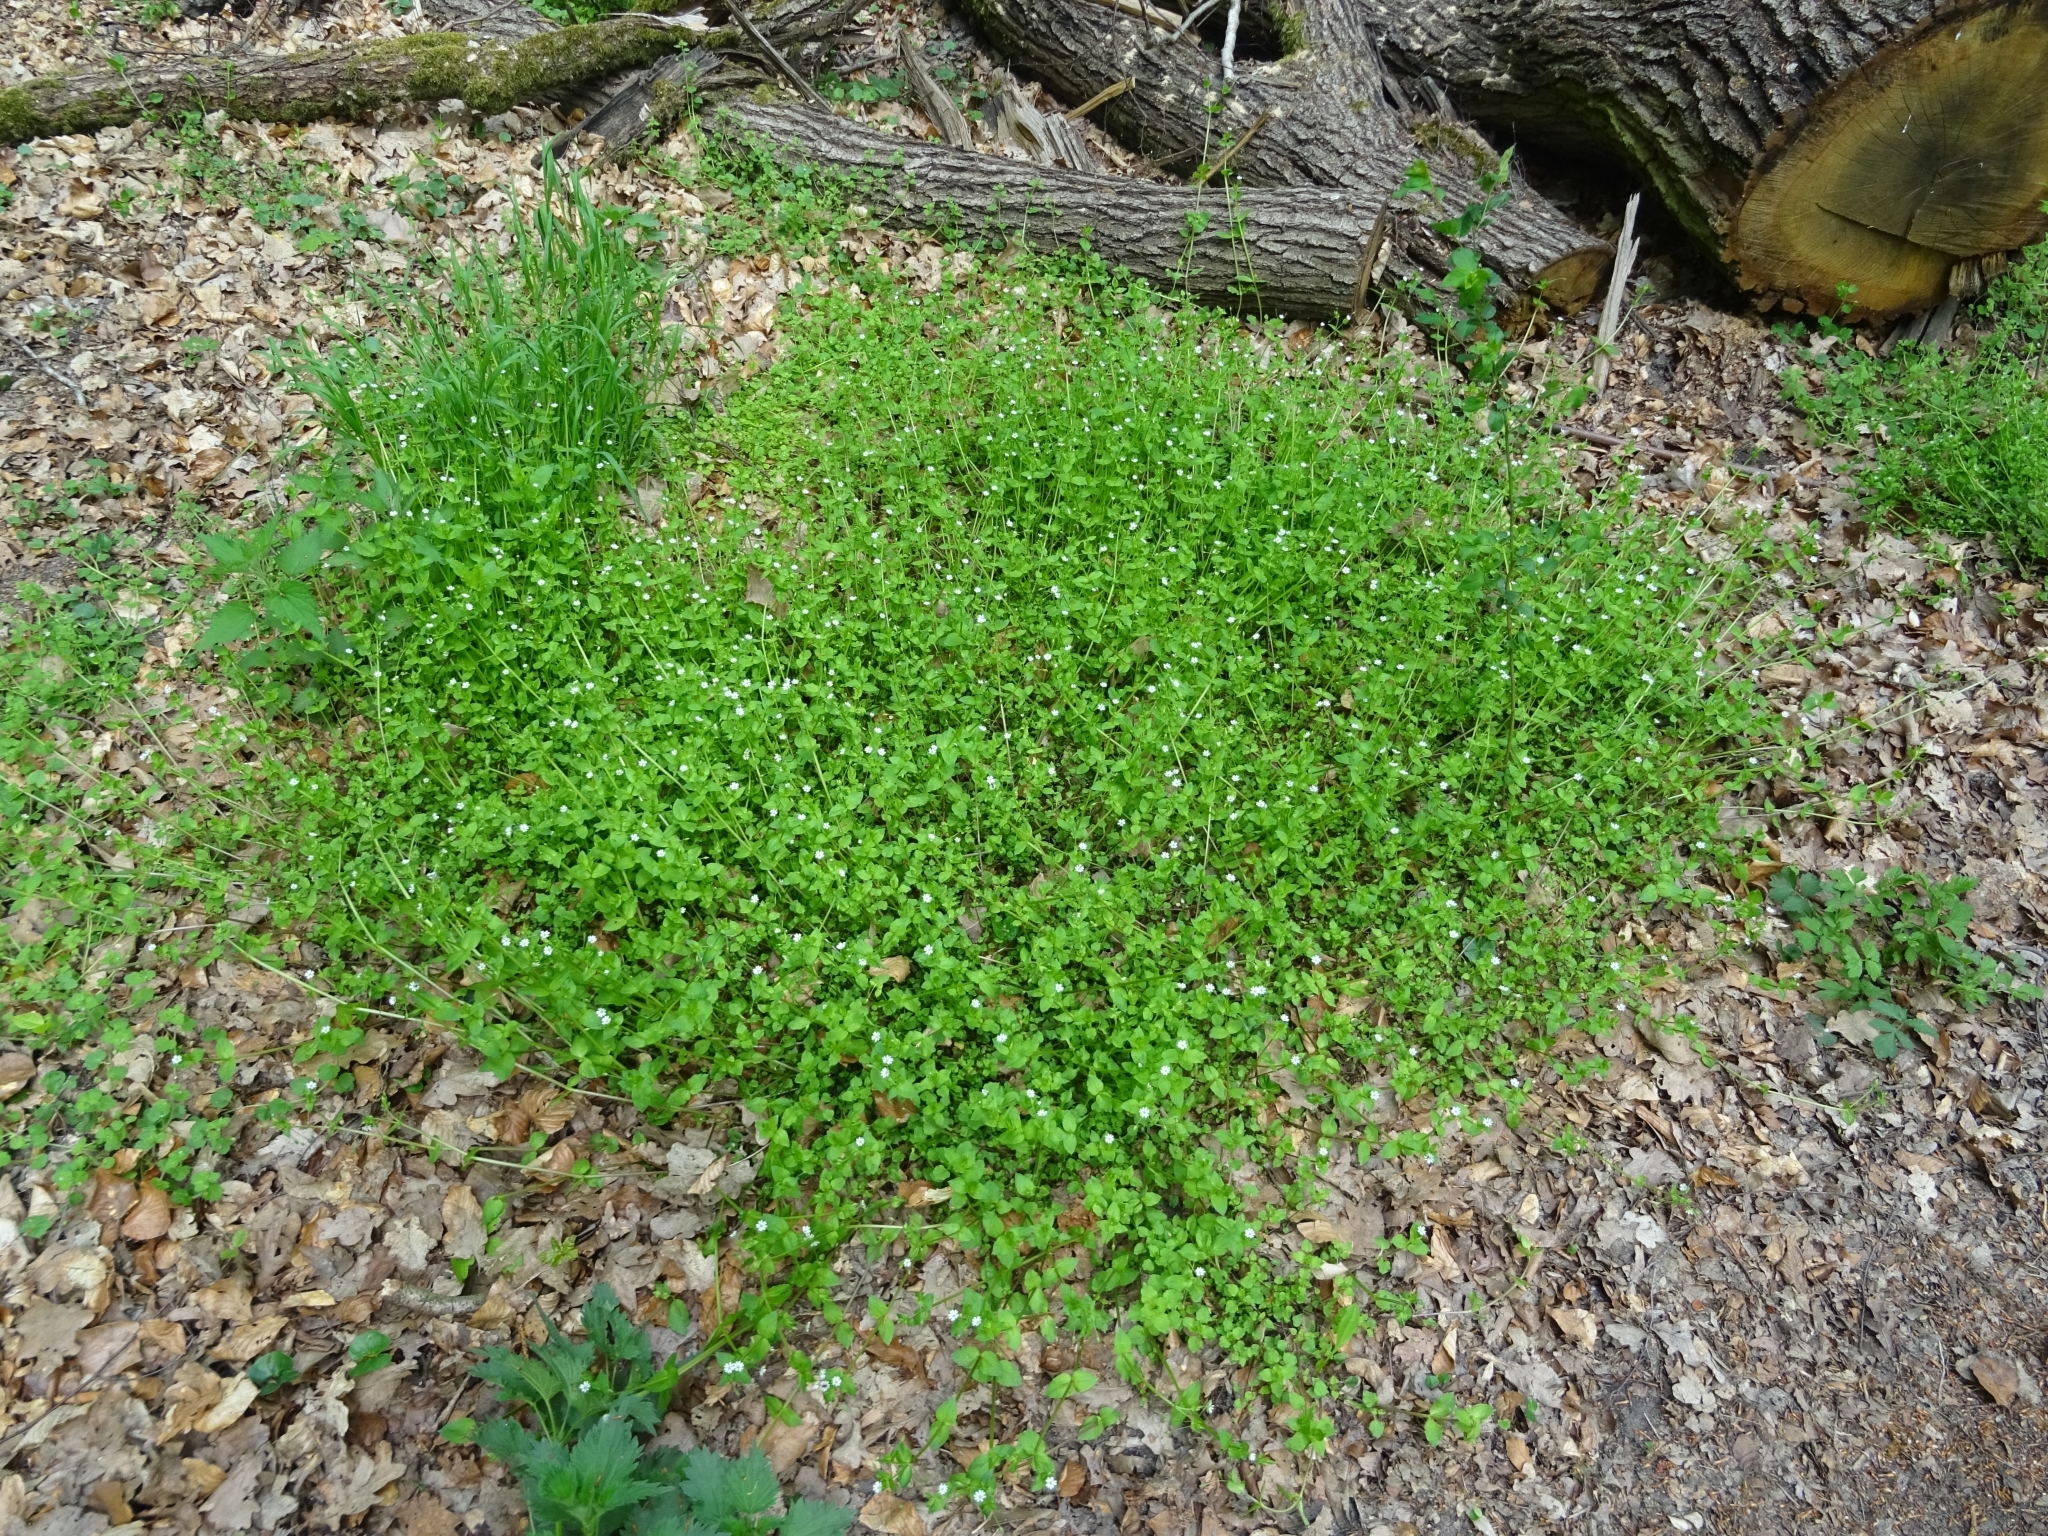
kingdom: Plantae
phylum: Tracheophyta
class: Magnoliopsida
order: Caryophyllales
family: Caryophyllaceae
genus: Stellaria
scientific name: Stellaria media
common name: Common chickweed
